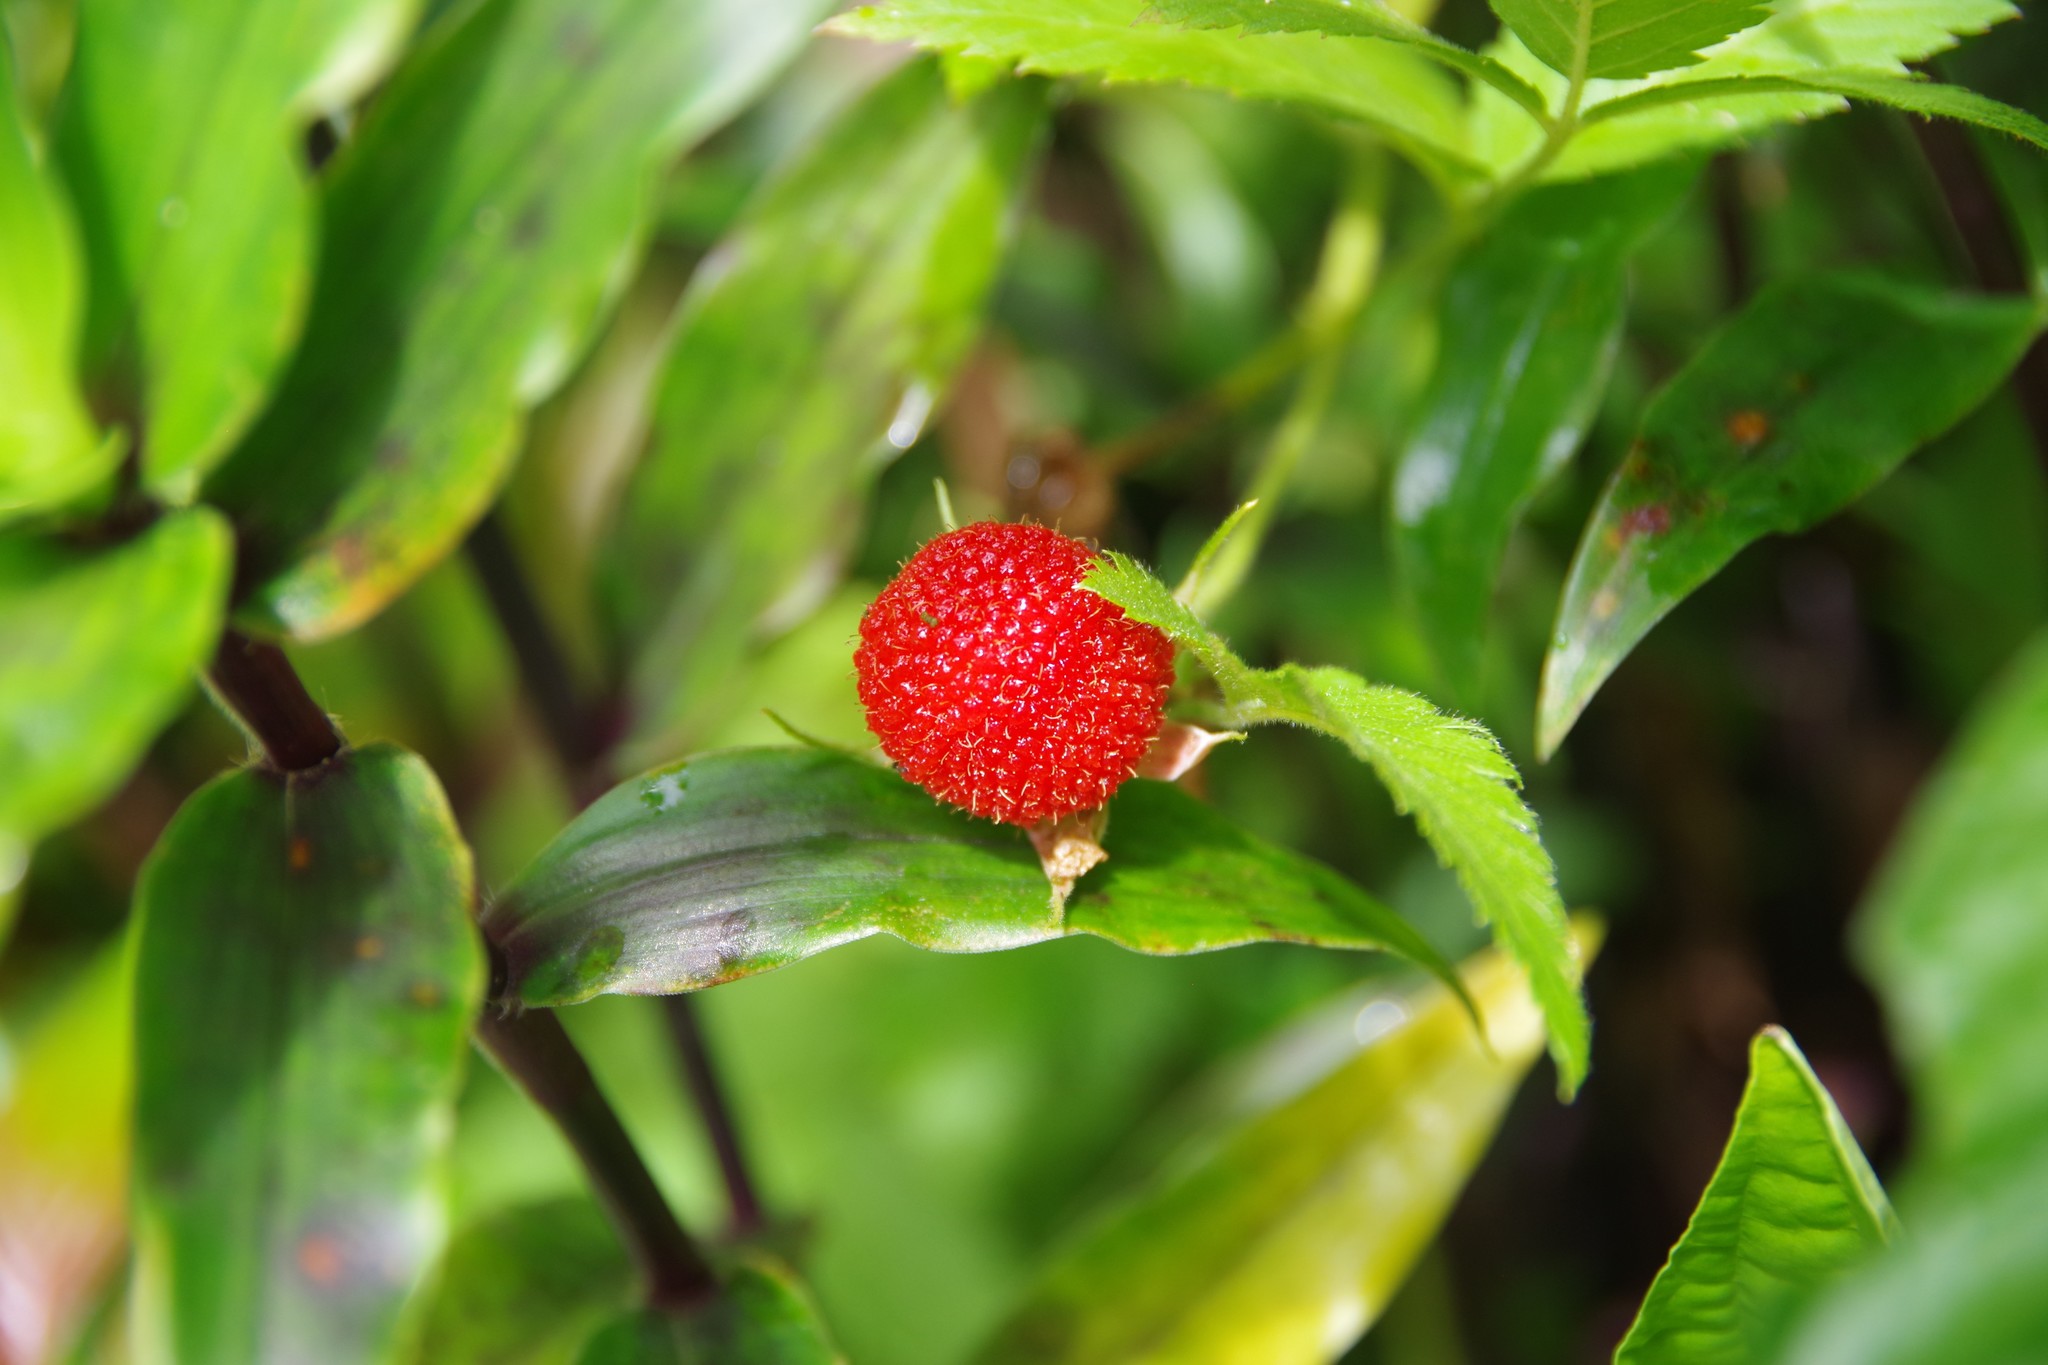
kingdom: Plantae
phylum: Tracheophyta
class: Magnoliopsida
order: Rosales
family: Rosaceae
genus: Rubus
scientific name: Rubus rosifolius
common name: Roseleaf raspberry
